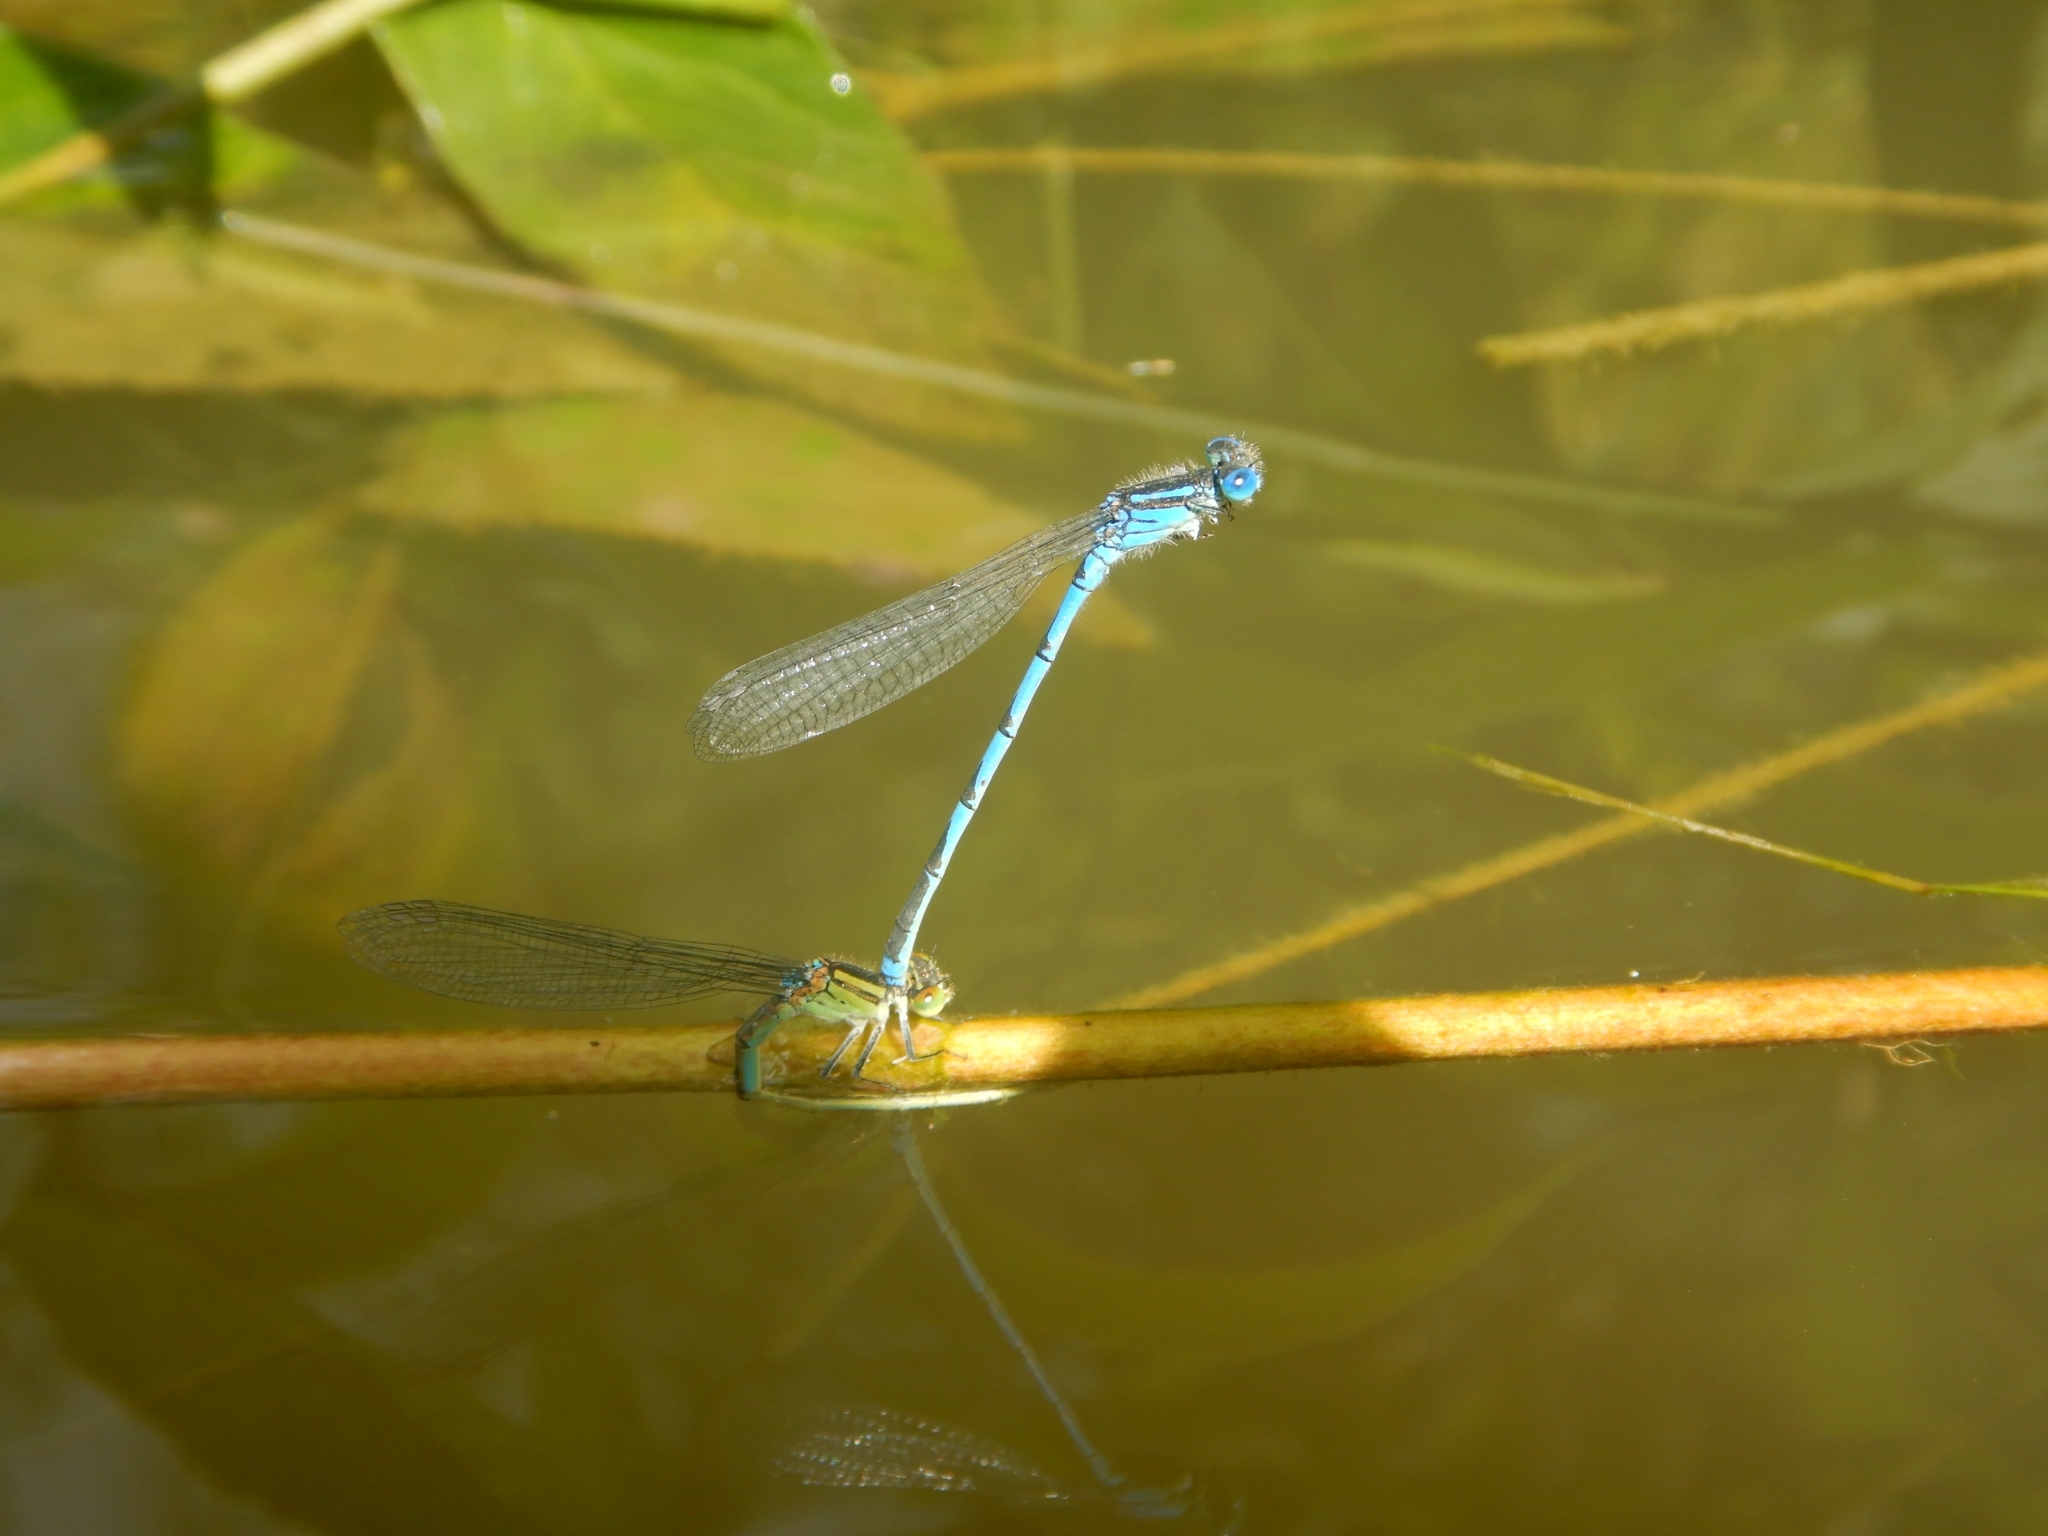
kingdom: Animalia
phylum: Arthropoda
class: Insecta
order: Odonata
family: Coenagrionidae
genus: Erythromma
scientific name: Erythromma lindenii
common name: Blue-eye
